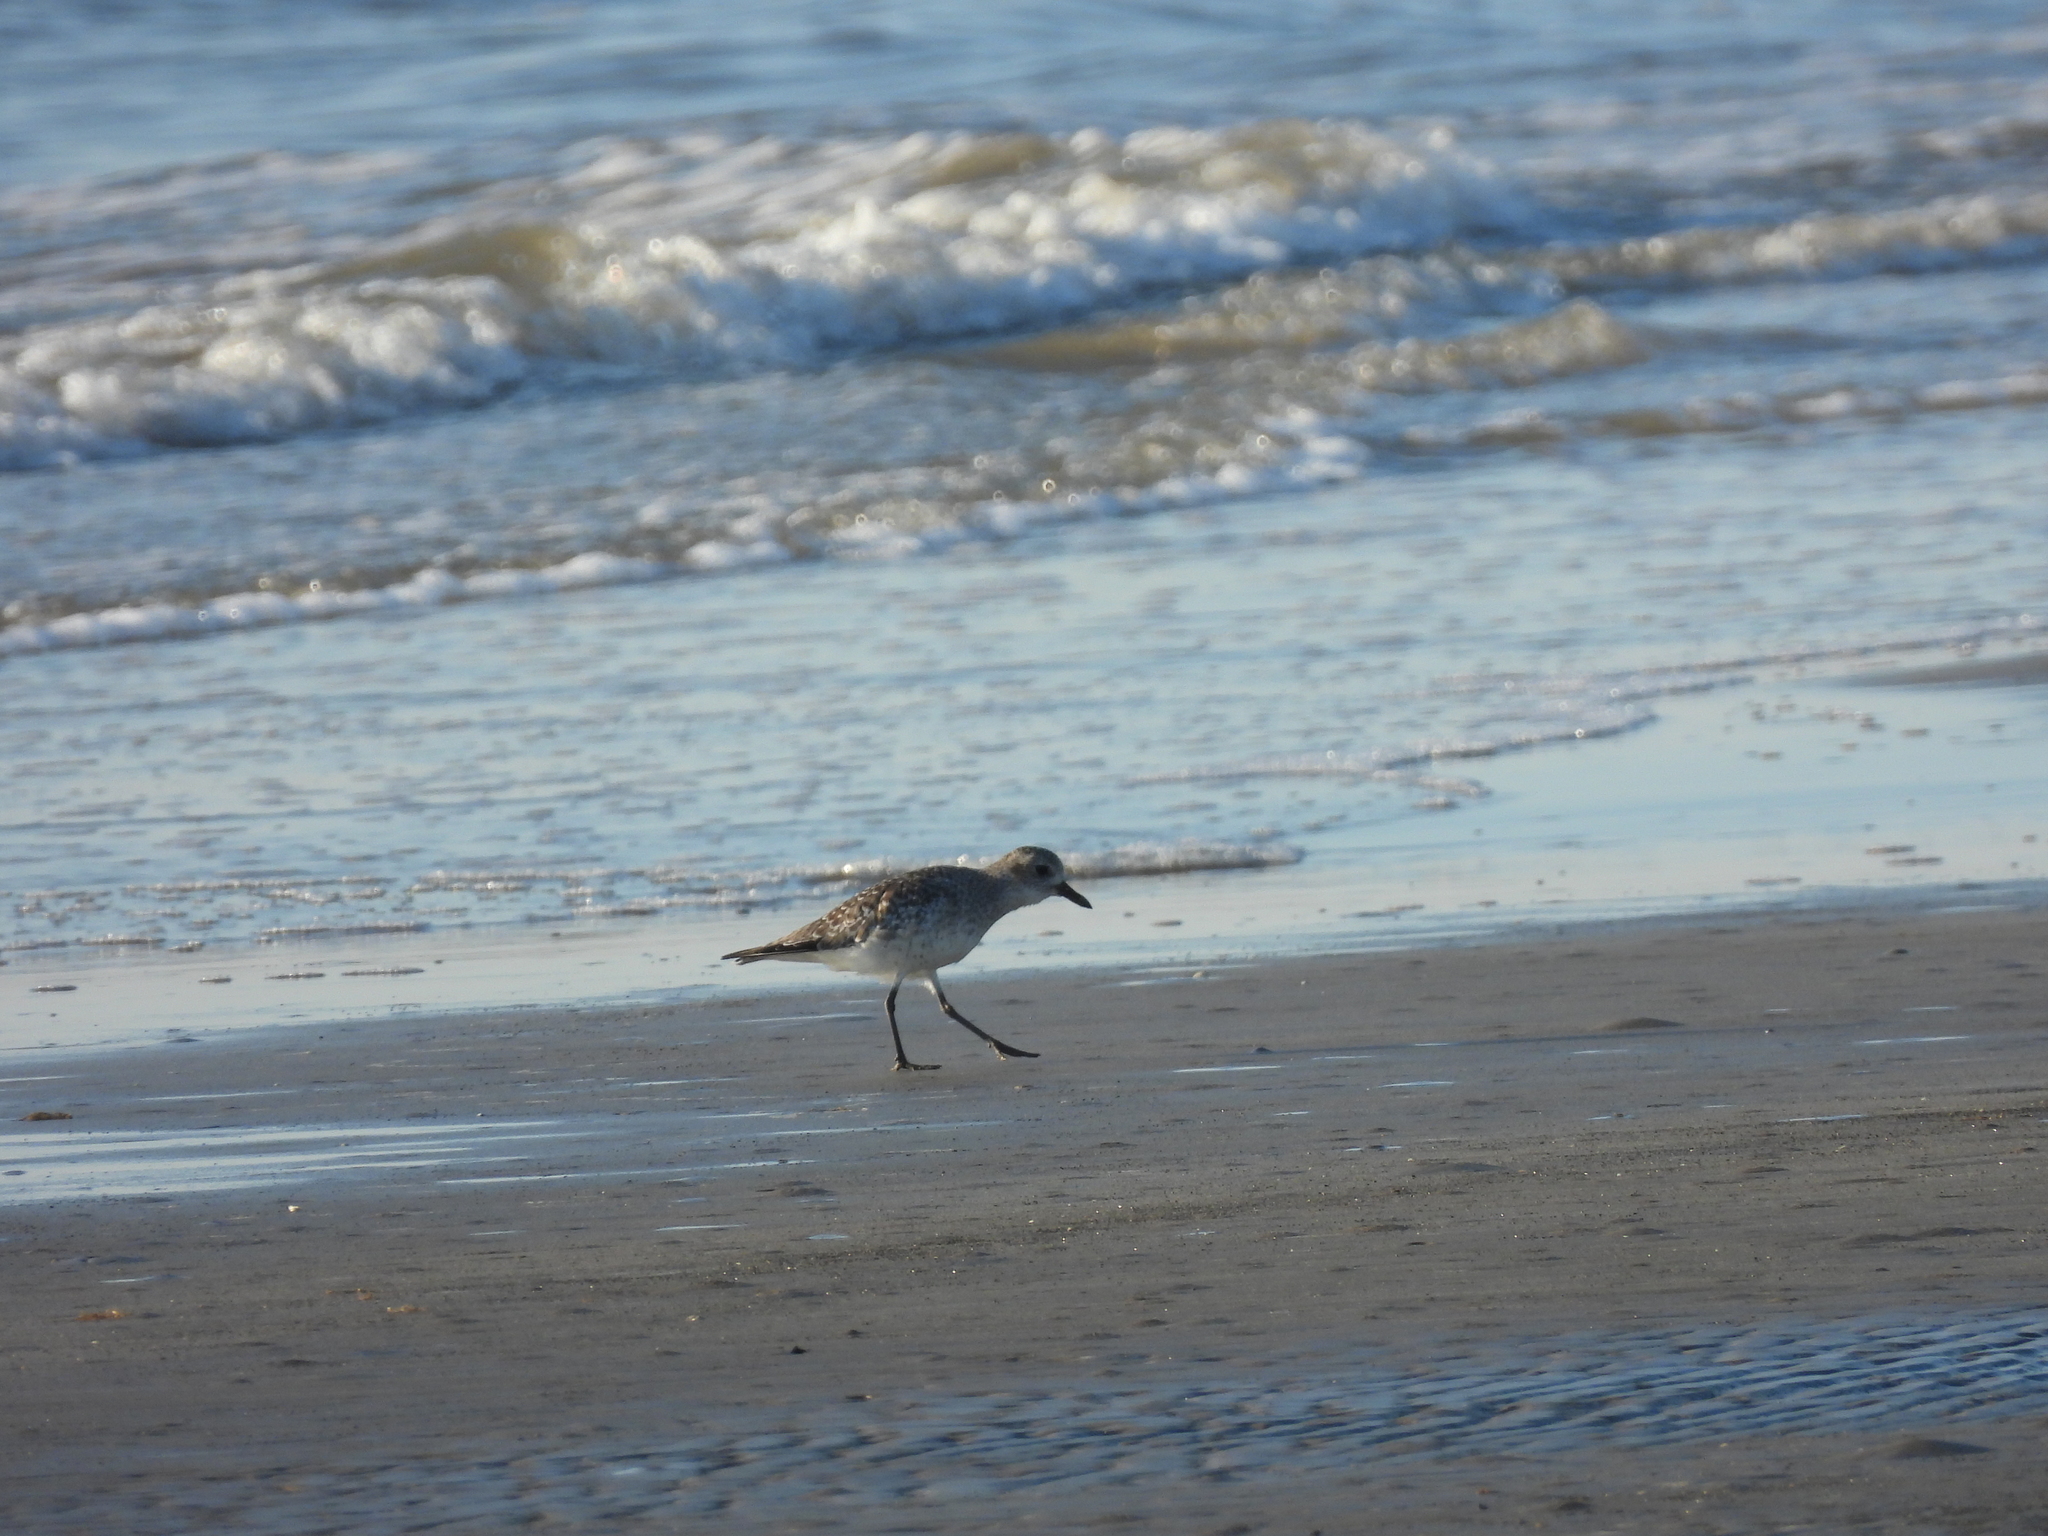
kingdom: Animalia
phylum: Chordata
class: Aves
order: Charadriiformes
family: Charadriidae
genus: Pluvialis
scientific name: Pluvialis squatarola
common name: Grey plover
